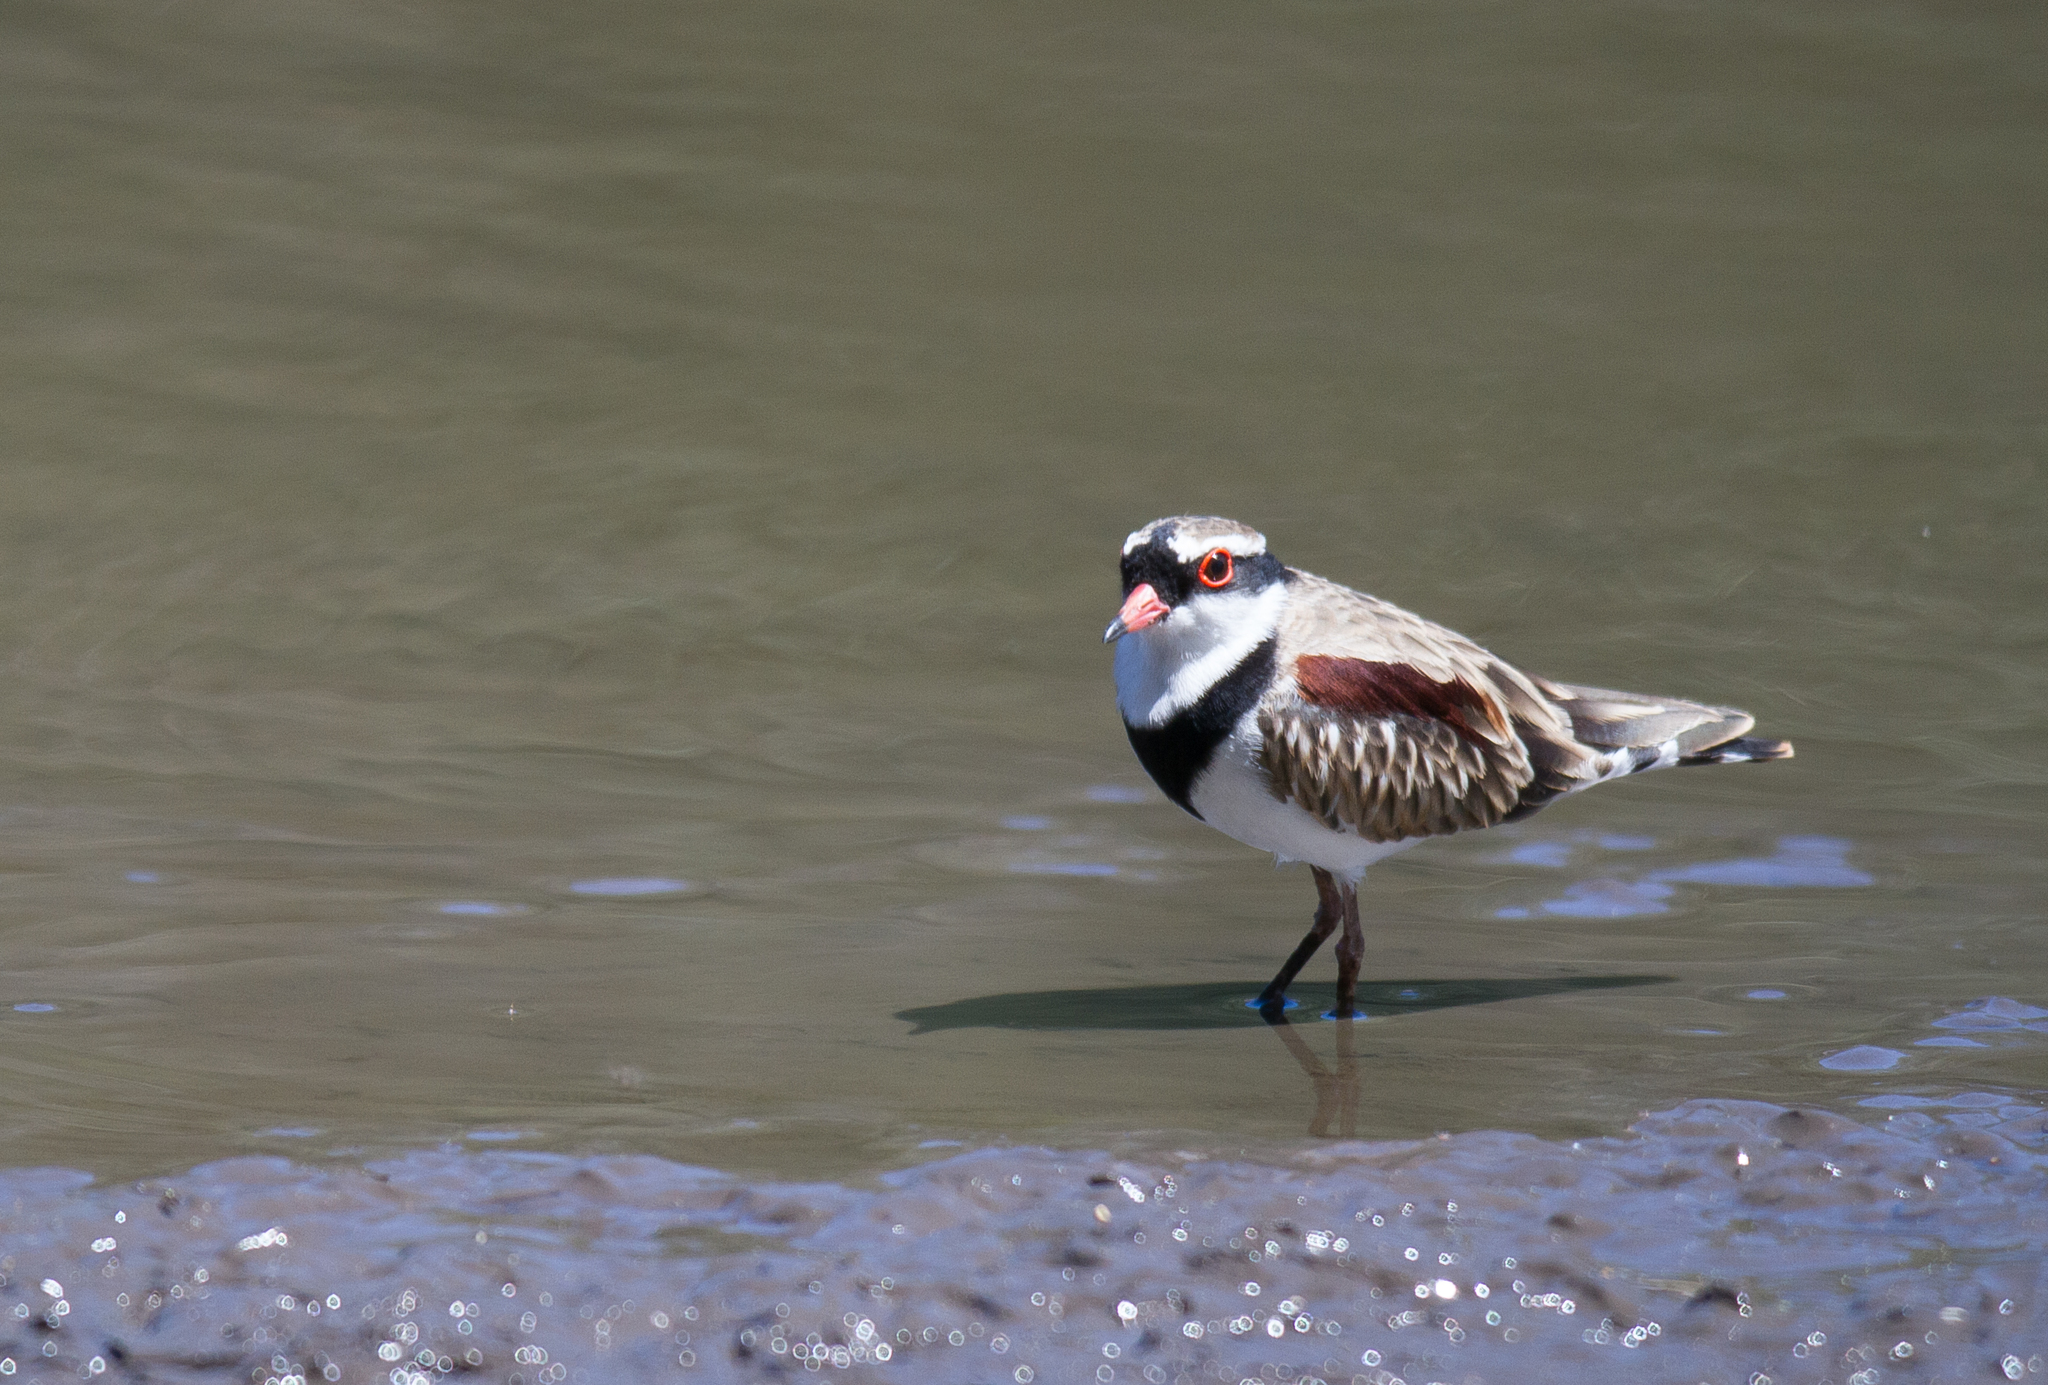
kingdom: Animalia
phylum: Chordata
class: Aves
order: Charadriiformes
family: Charadriidae
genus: Elseyornis
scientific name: Elseyornis melanops
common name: Black-fronted dotterel
